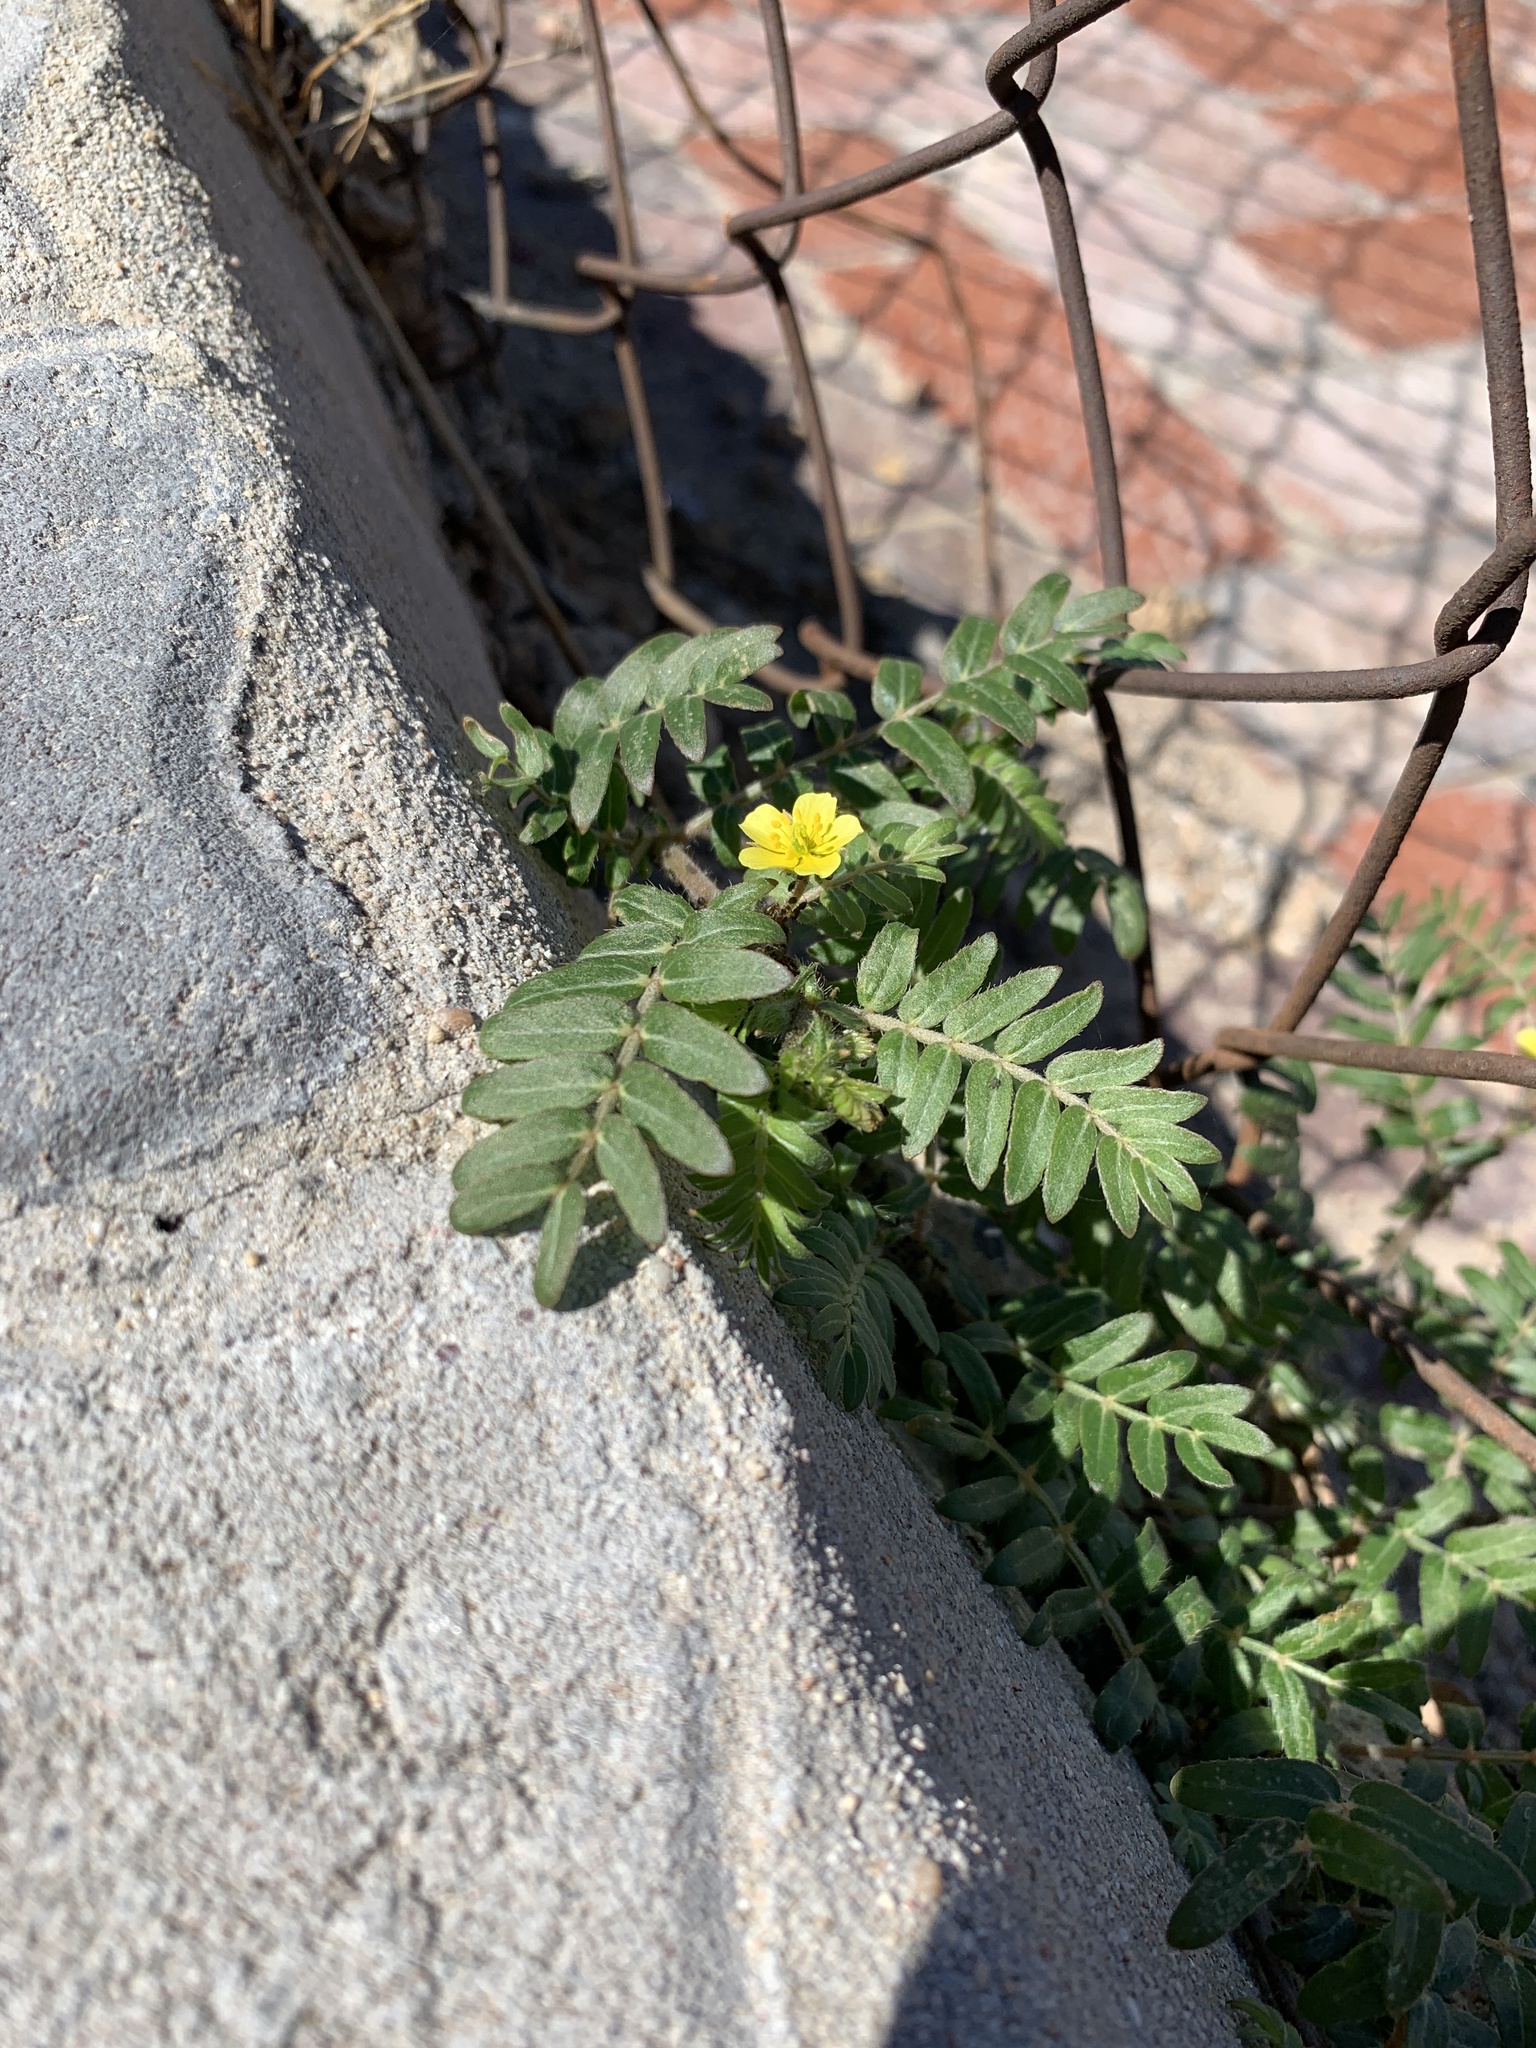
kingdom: Plantae
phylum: Tracheophyta
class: Magnoliopsida
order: Zygophyllales
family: Zygophyllaceae
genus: Tribulus
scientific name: Tribulus terrestris
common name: Puncturevine
